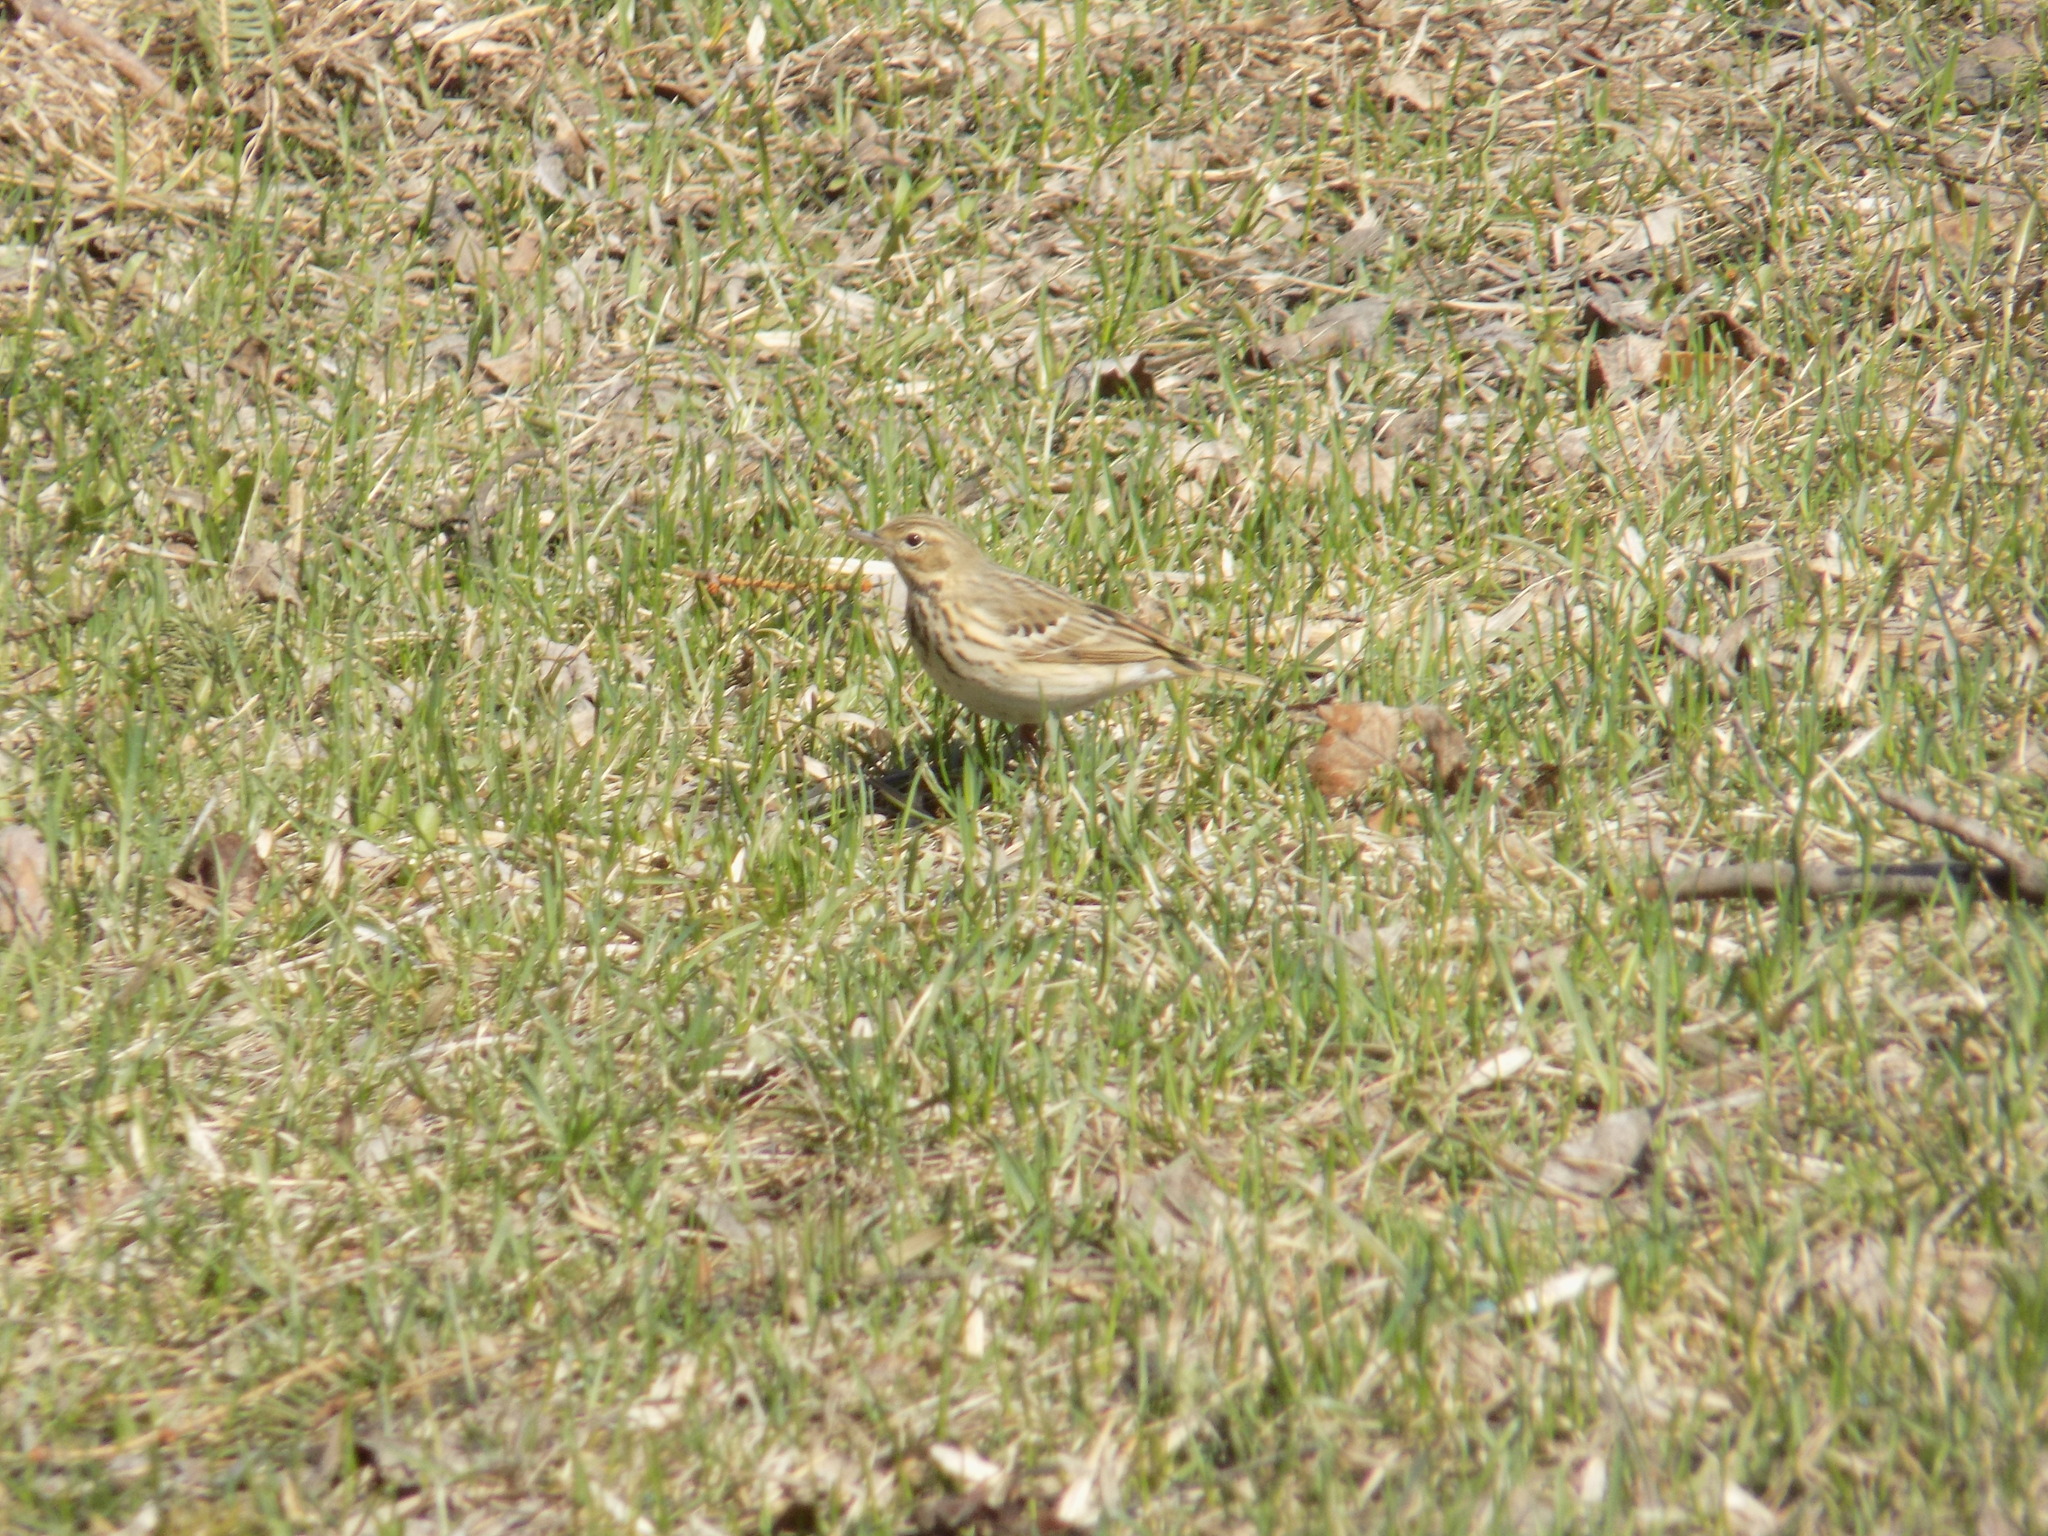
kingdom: Animalia
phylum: Chordata
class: Aves
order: Passeriformes
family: Motacillidae
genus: Anthus
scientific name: Anthus trivialis
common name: Tree pipit
